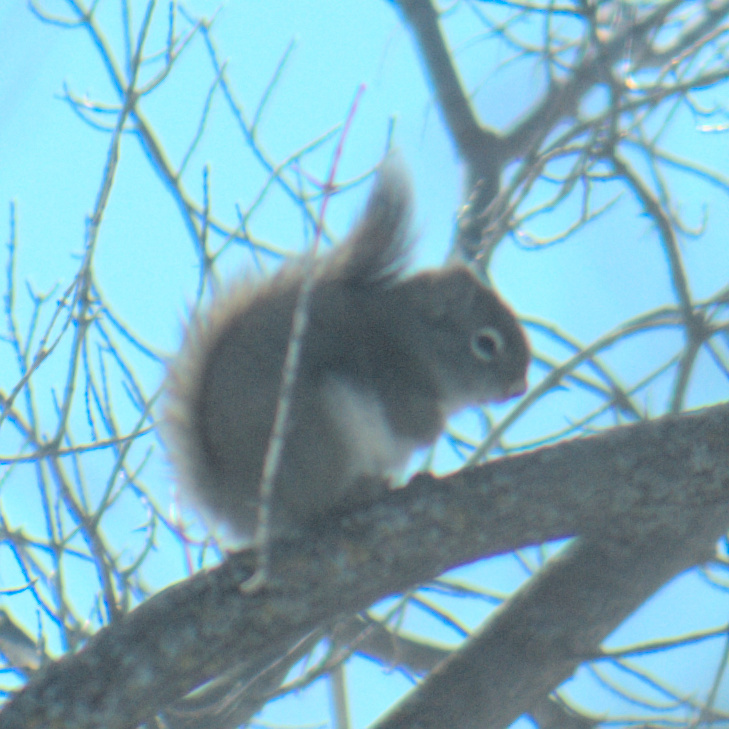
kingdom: Animalia
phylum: Chordata
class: Mammalia
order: Rodentia
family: Sciuridae
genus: Tamiasciurus
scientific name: Tamiasciurus hudsonicus
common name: Red squirrel
